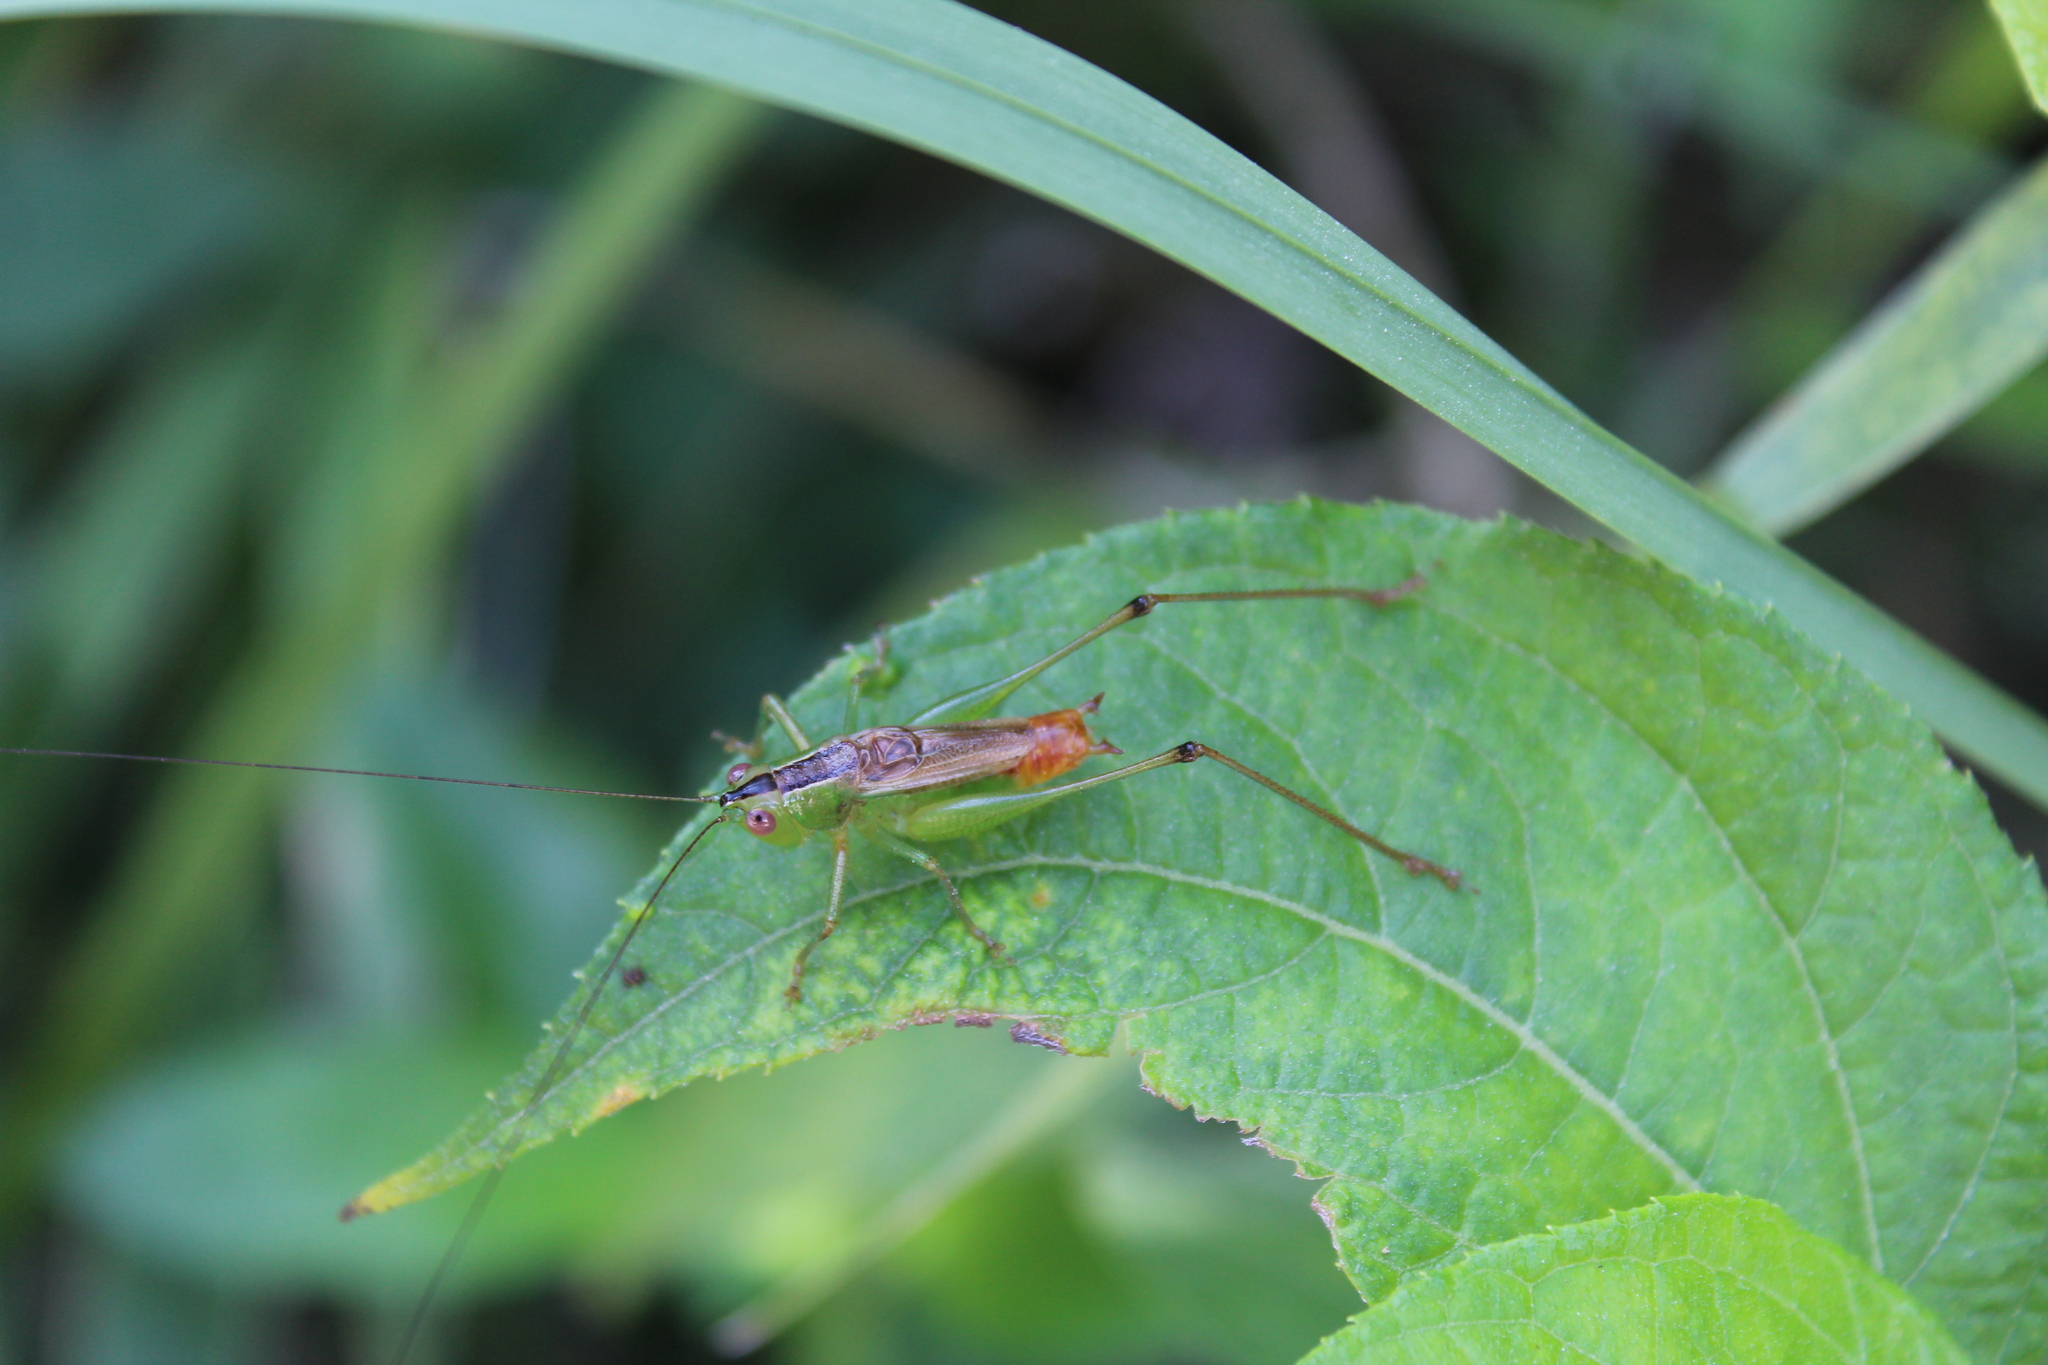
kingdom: Animalia
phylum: Arthropoda
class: Insecta
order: Orthoptera
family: Tettigoniidae
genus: Conocephalus
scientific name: Conocephalus ictus
